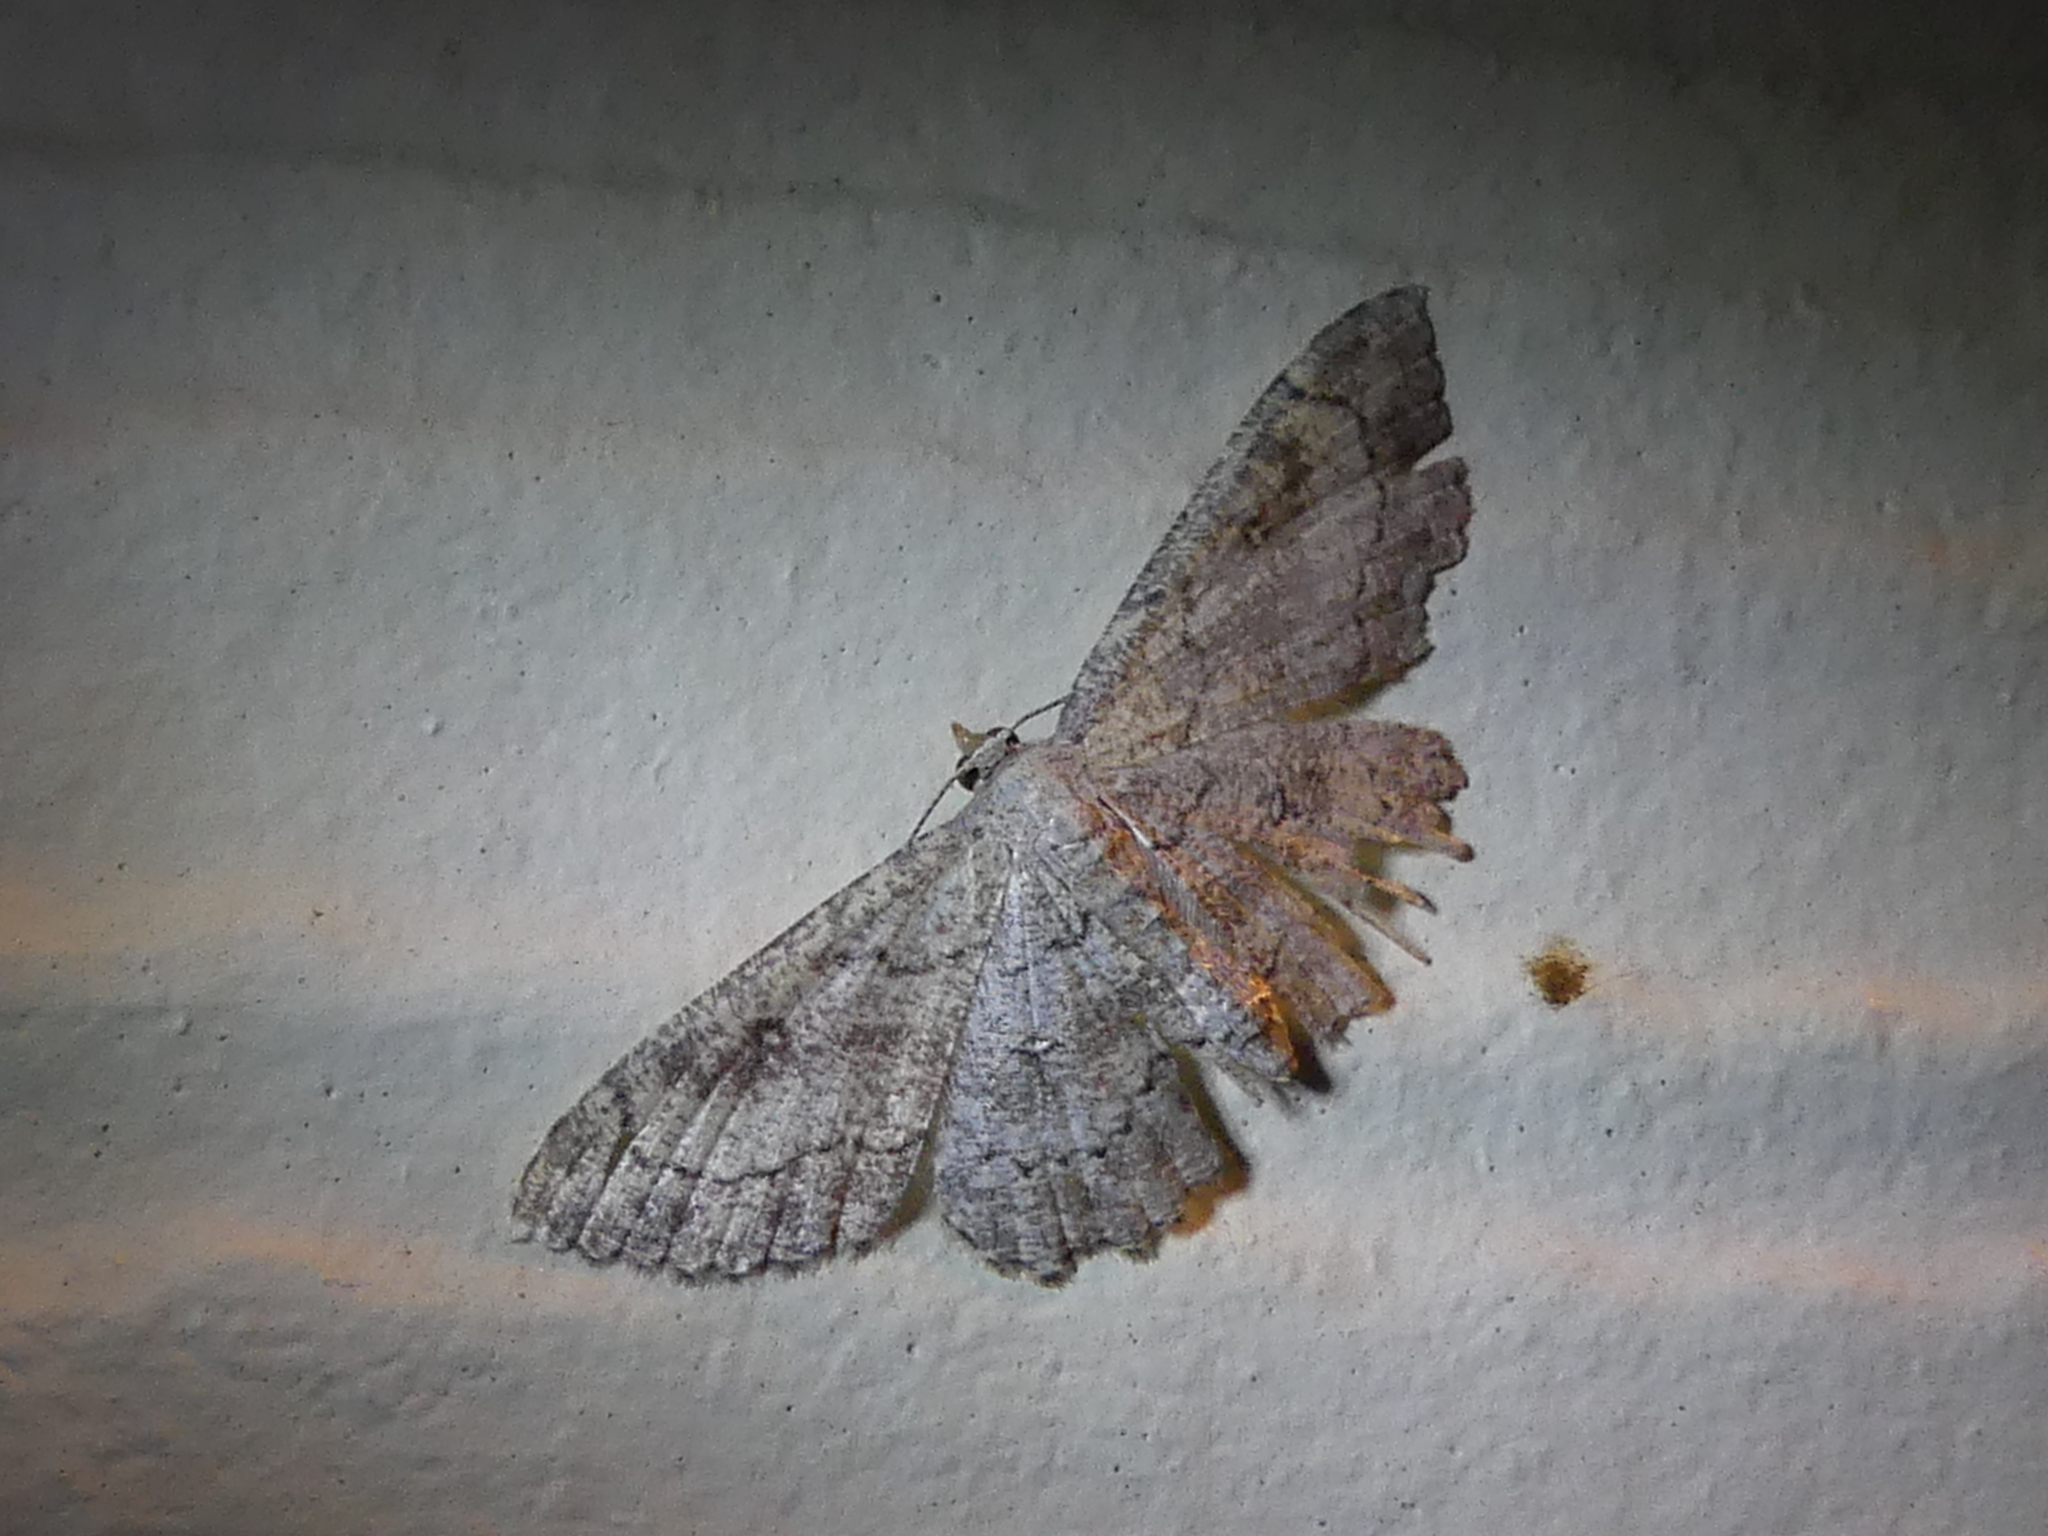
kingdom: Animalia
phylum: Arthropoda
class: Insecta
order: Lepidoptera
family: Geometridae
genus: Cyclophora
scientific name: Cyclophora nanaria
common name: Cankerworm
